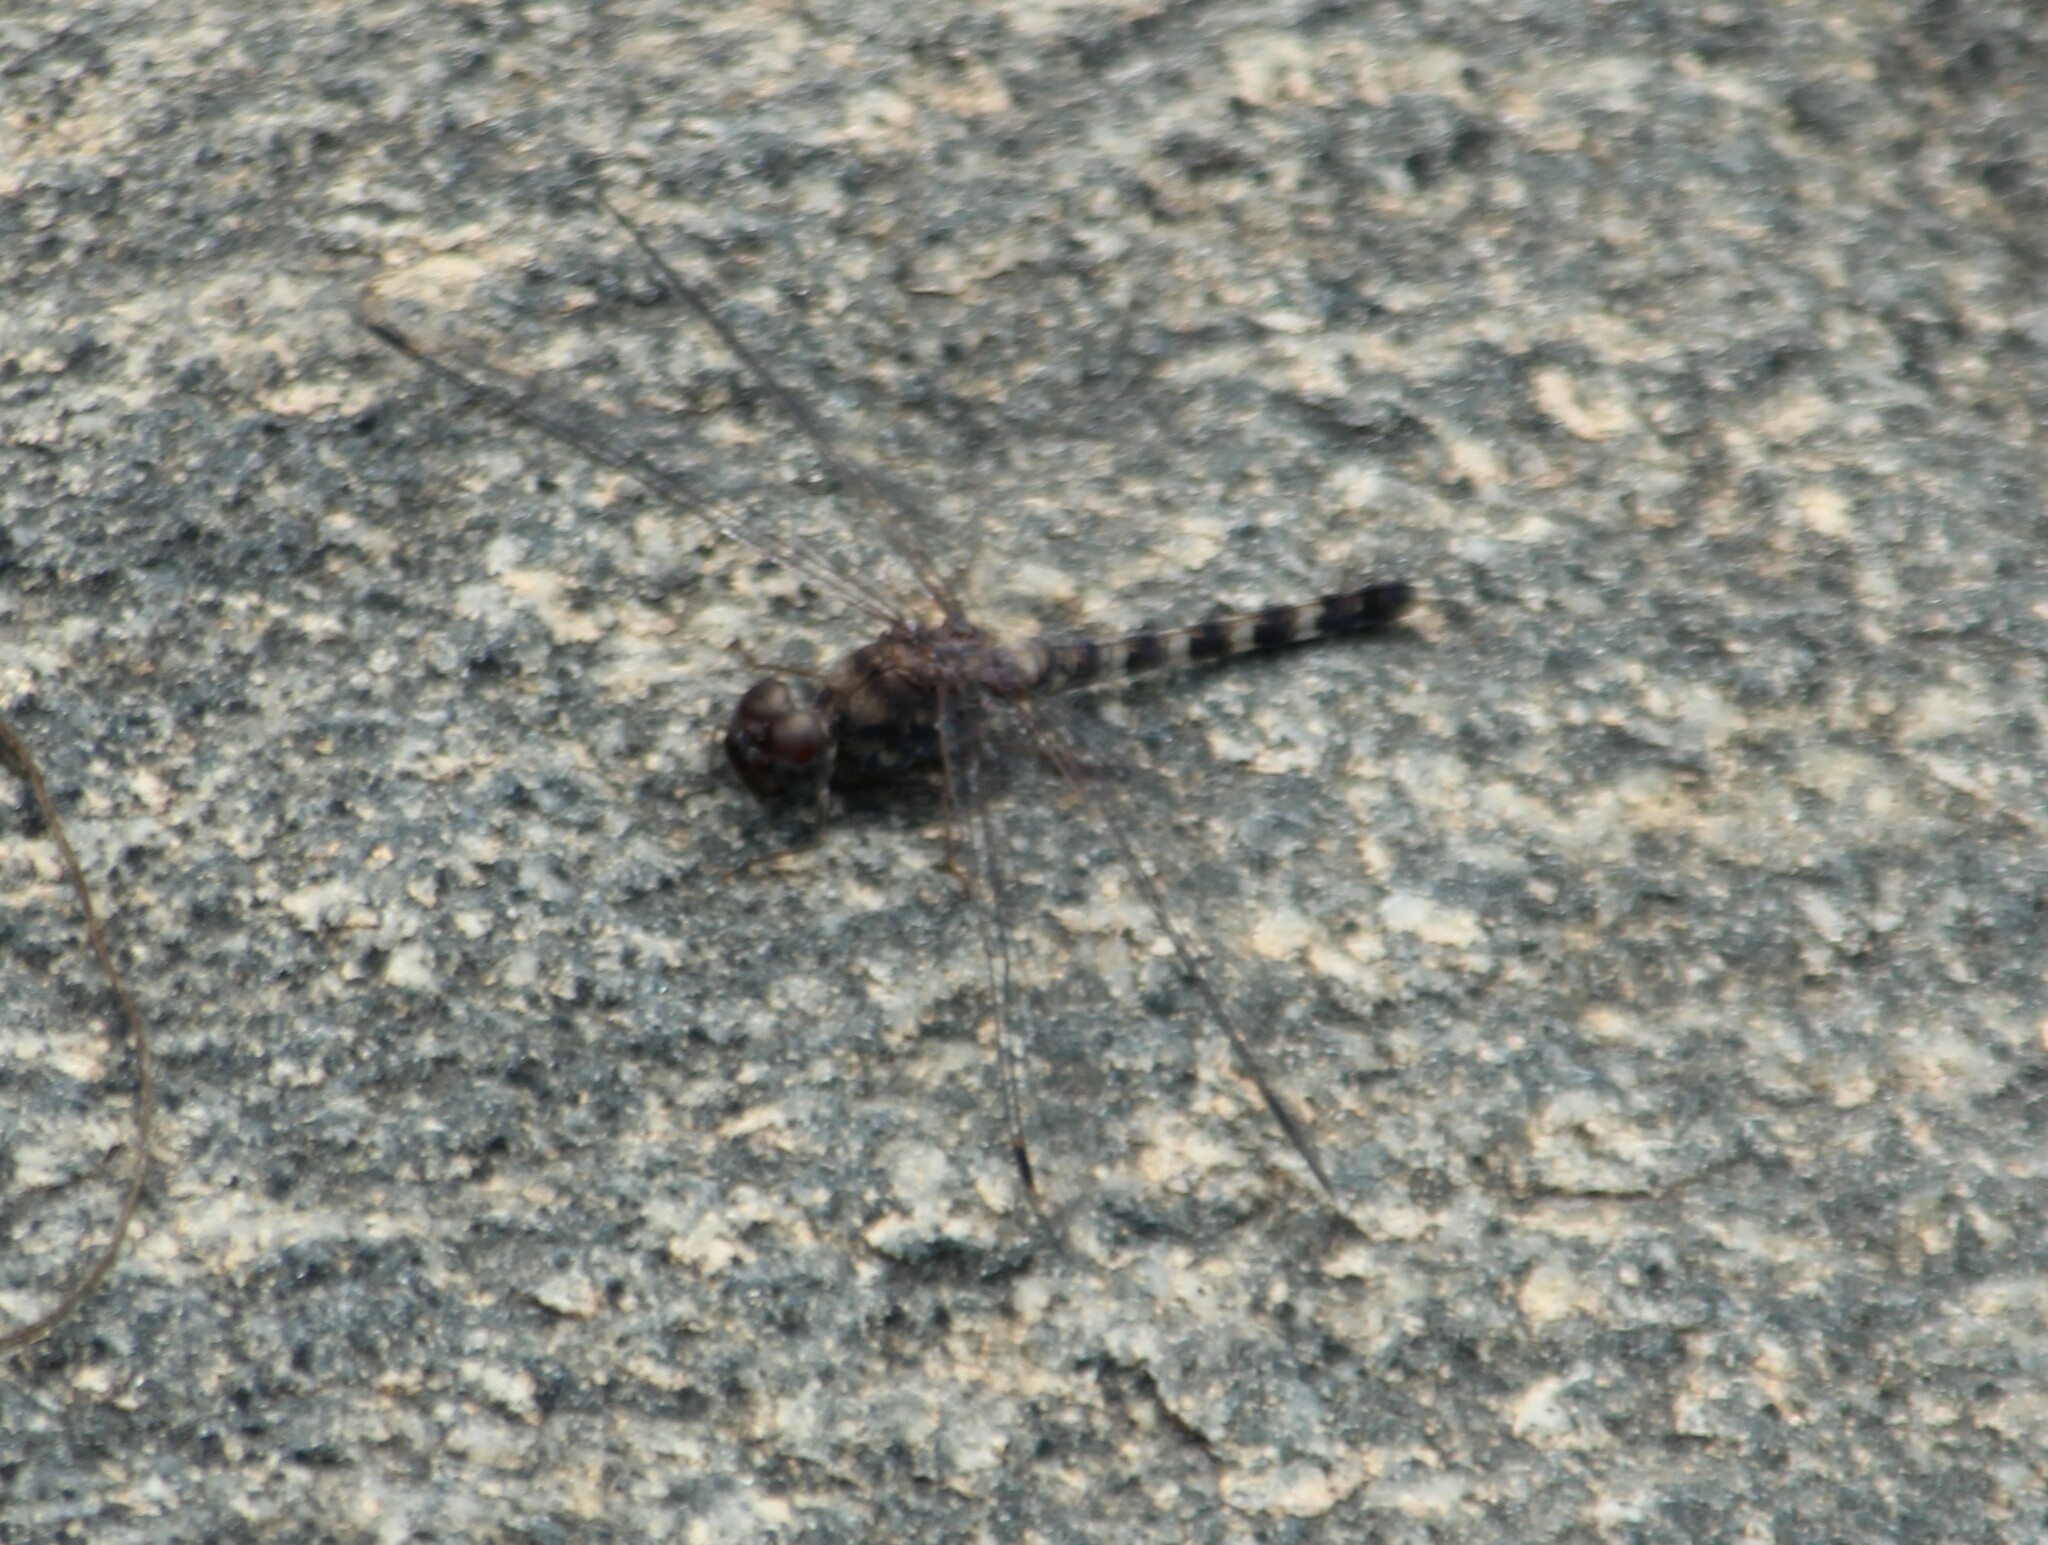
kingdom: Animalia
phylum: Arthropoda
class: Insecta
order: Odonata
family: Libellulidae
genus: Bradinopyga
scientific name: Bradinopyga geminata
